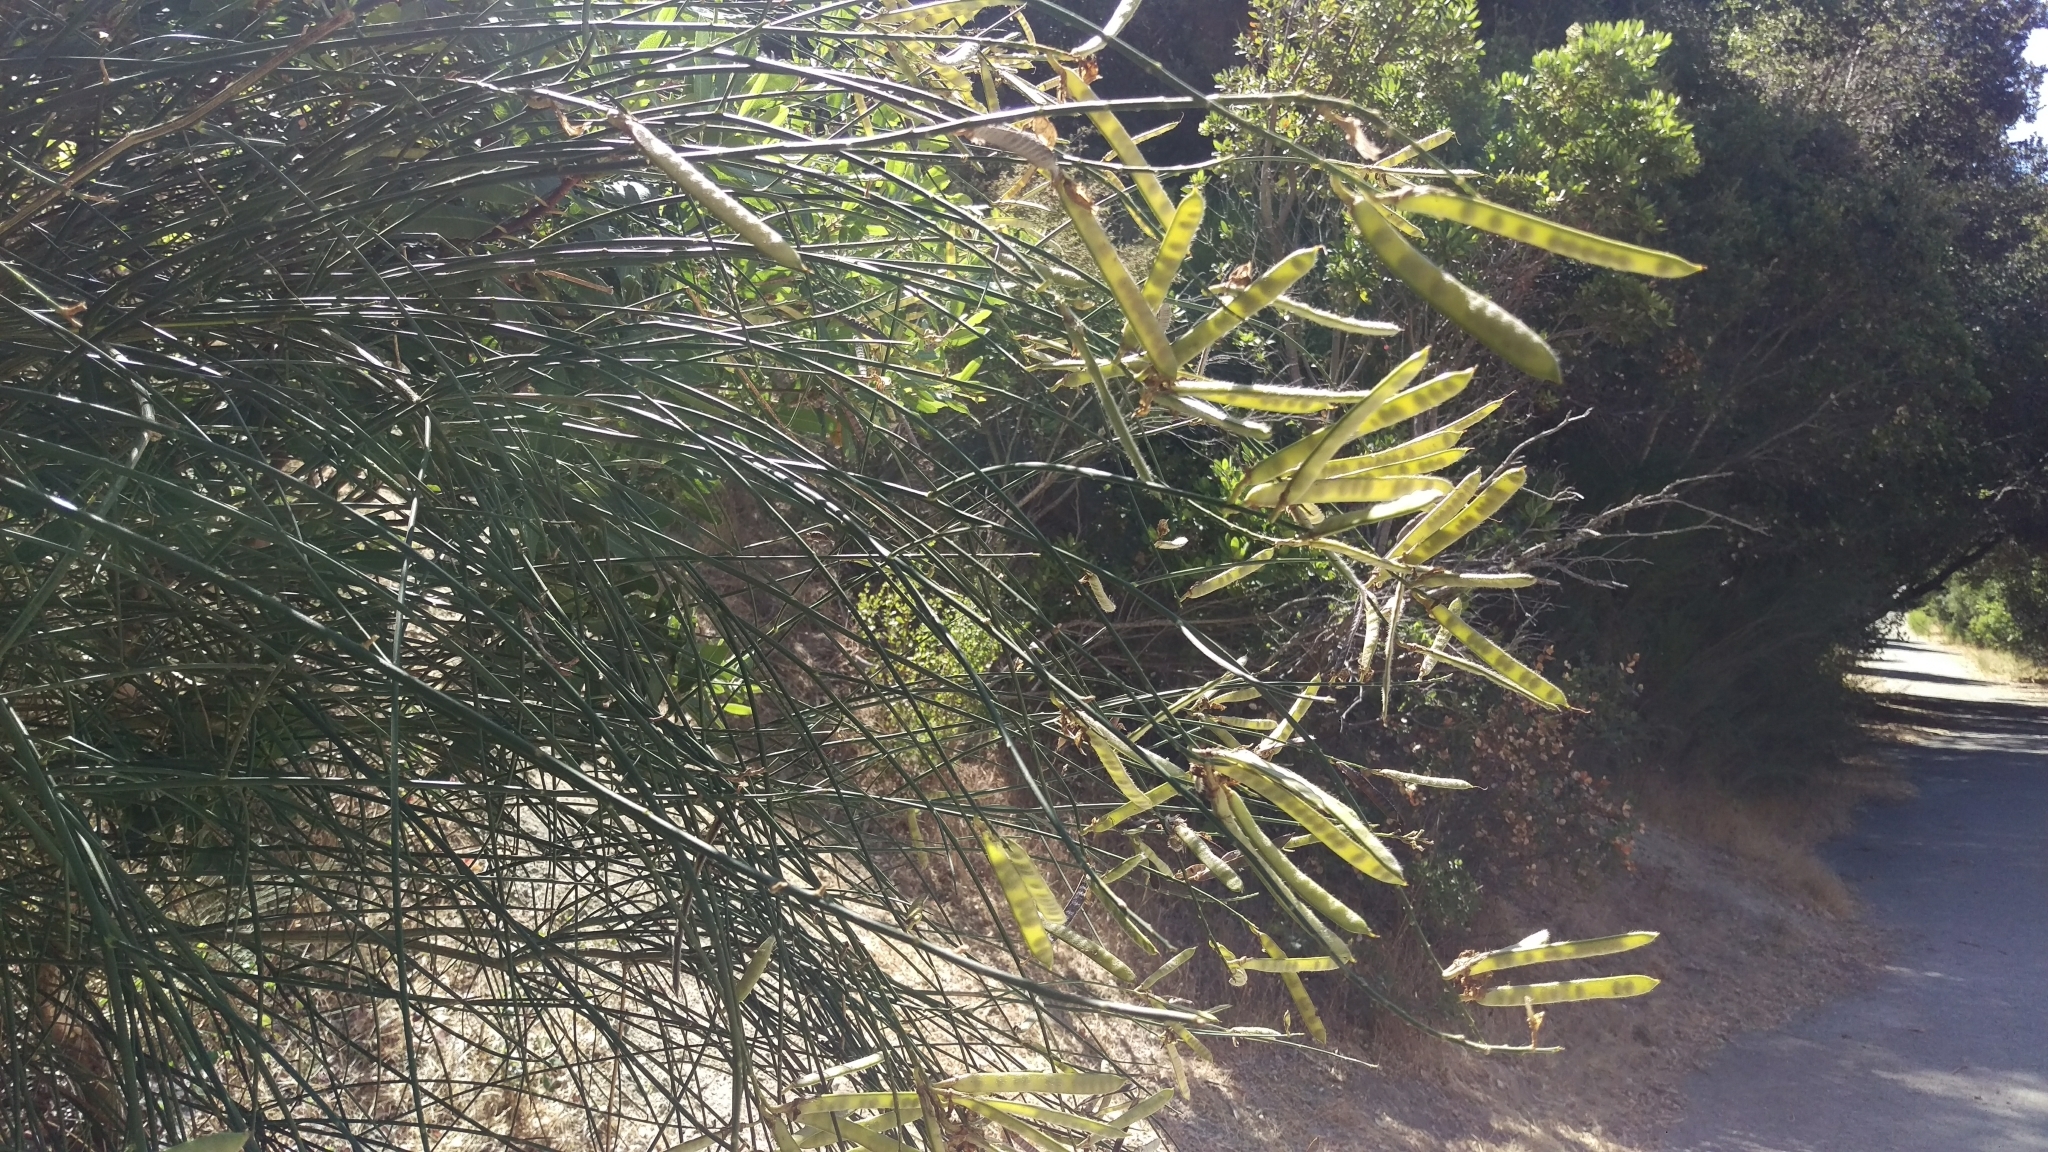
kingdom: Plantae
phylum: Tracheophyta
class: Magnoliopsida
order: Fabales
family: Fabaceae
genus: Spartium
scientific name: Spartium junceum
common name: Spanish broom
